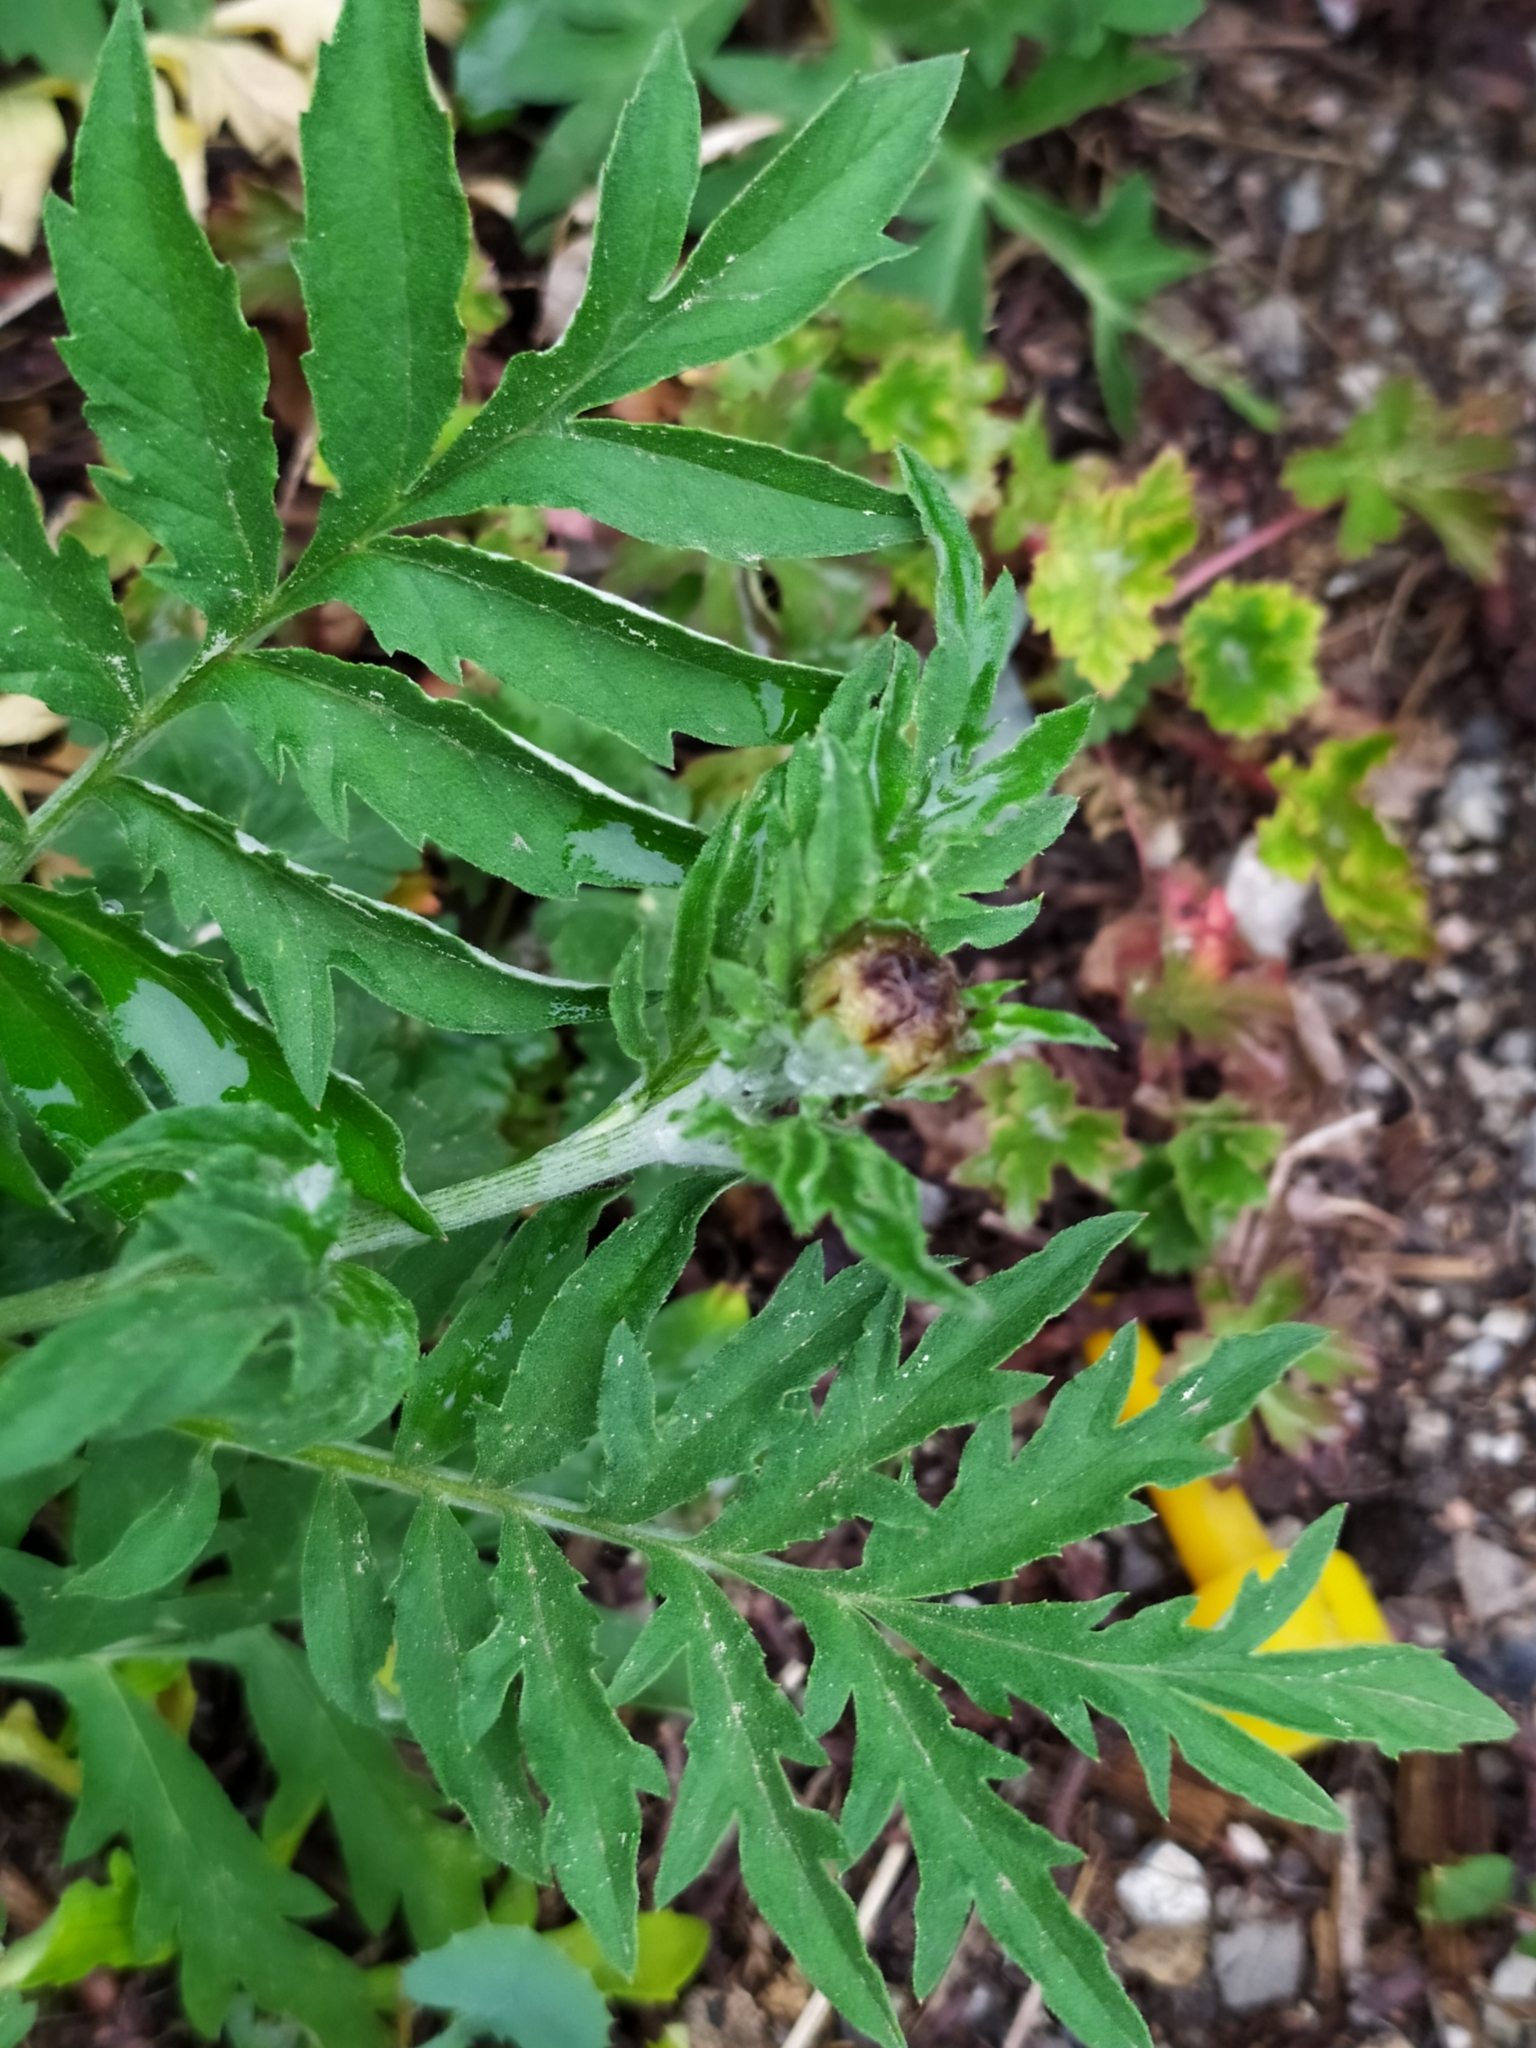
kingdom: Plantae
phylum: Tracheophyta
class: Magnoliopsida
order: Asterales
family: Asteraceae
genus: Psephellus
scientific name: Psephellus dealbatus
